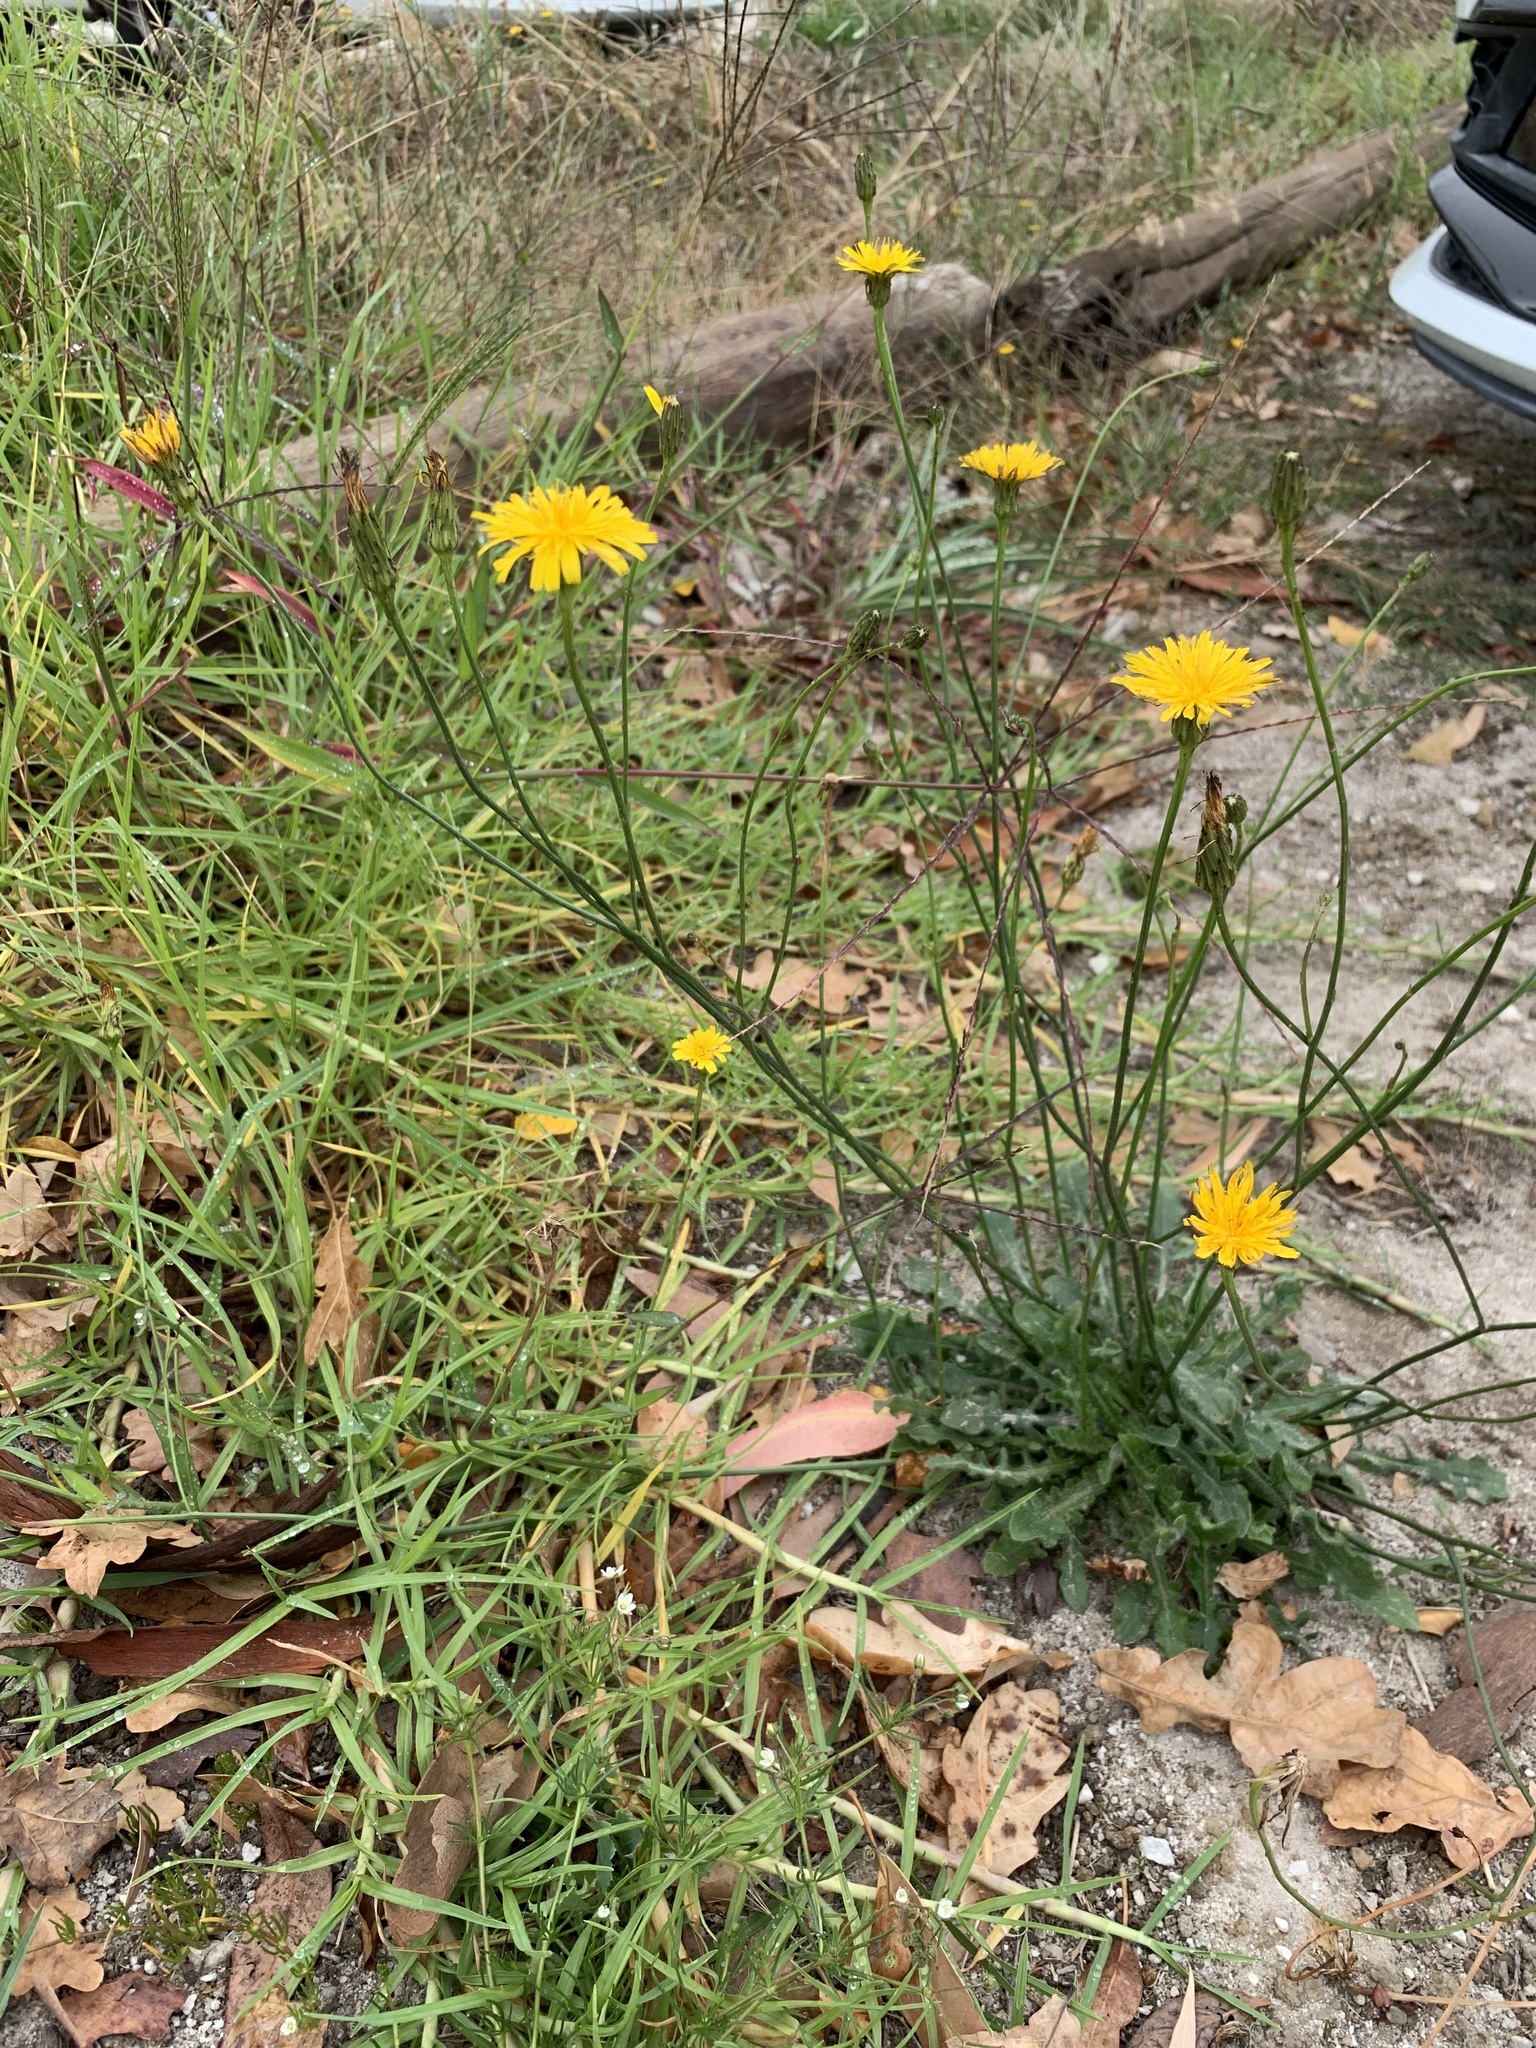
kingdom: Plantae
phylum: Tracheophyta
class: Magnoliopsida
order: Asterales
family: Asteraceae
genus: Hypochaeris
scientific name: Hypochaeris radicata
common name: Flatweed
